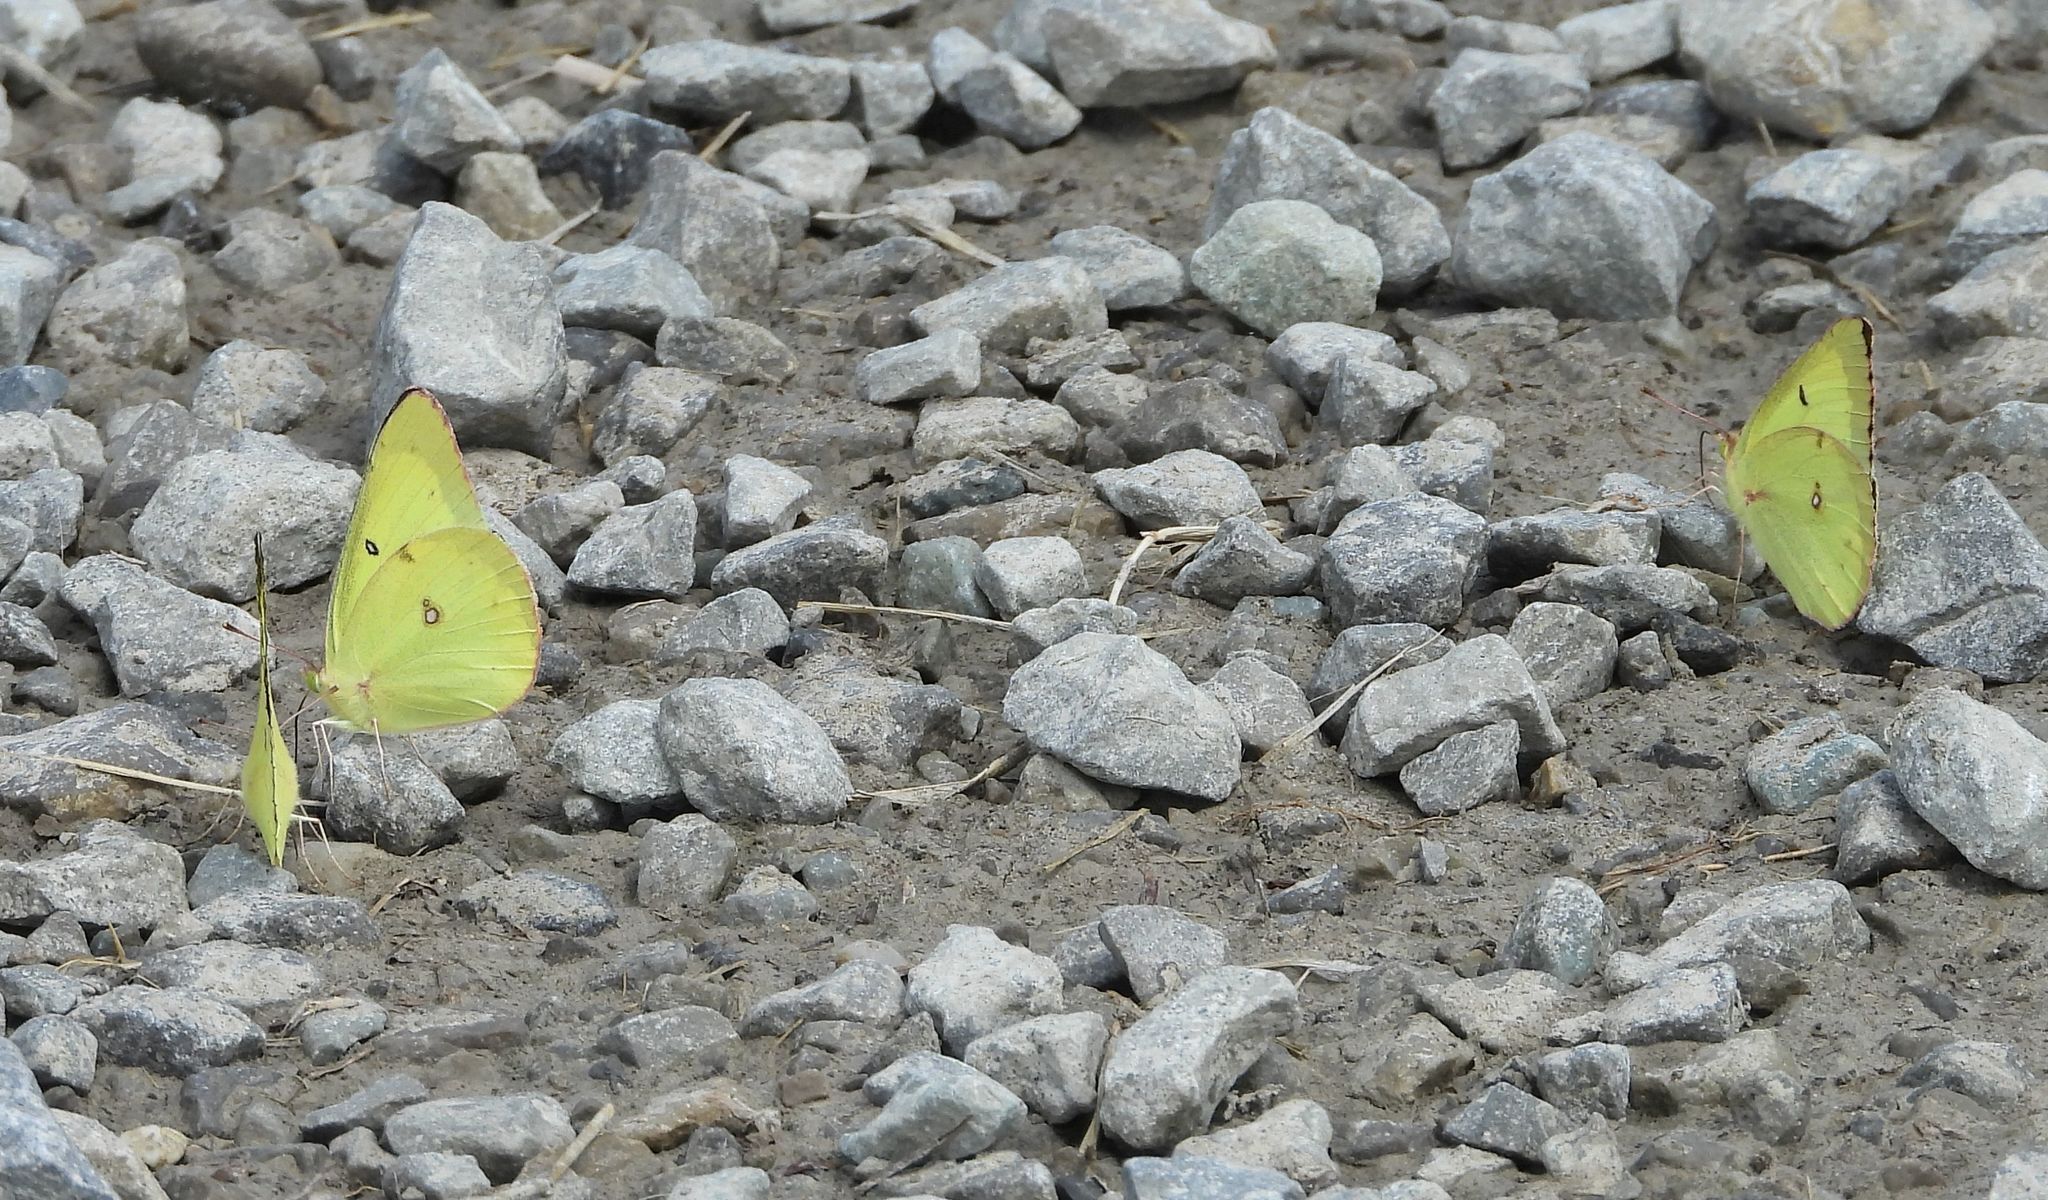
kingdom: Animalia
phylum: Arthropoda
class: Insecta
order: Lepidoptera
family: Pieridae
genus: Colias
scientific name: Colias philodice
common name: Clouded sulphur
